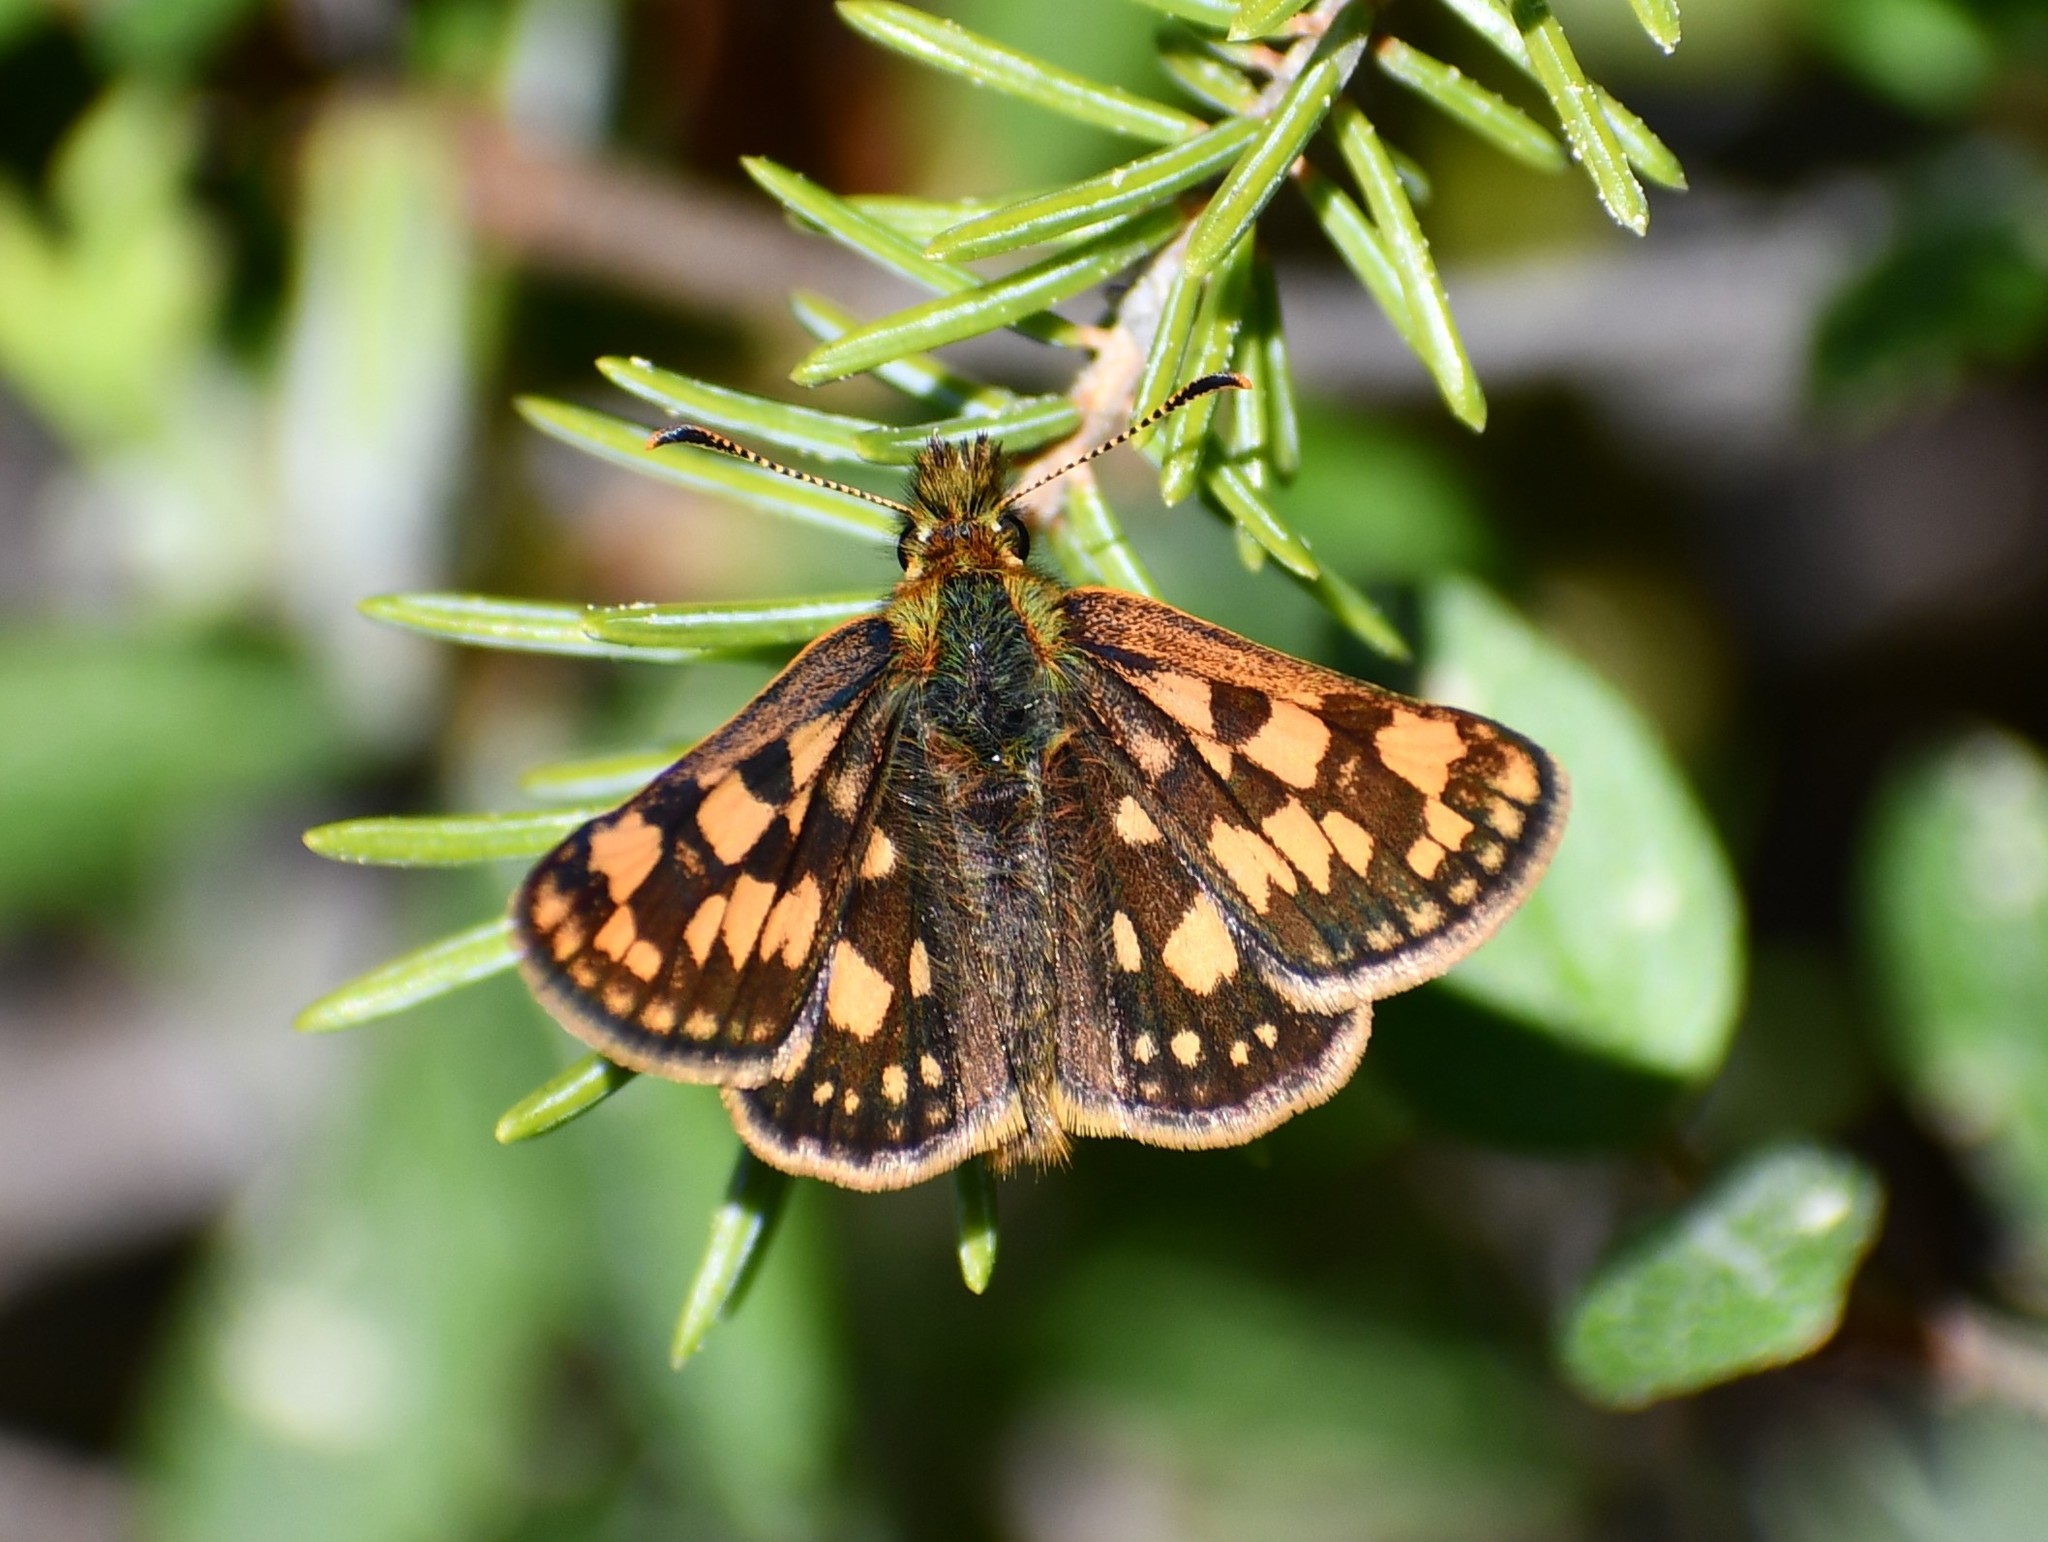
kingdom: Animalia
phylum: Arthropoda
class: Insecta
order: Lepidoptera
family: Hesperiidae
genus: Carterocephalus
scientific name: Carterocephalus skada
